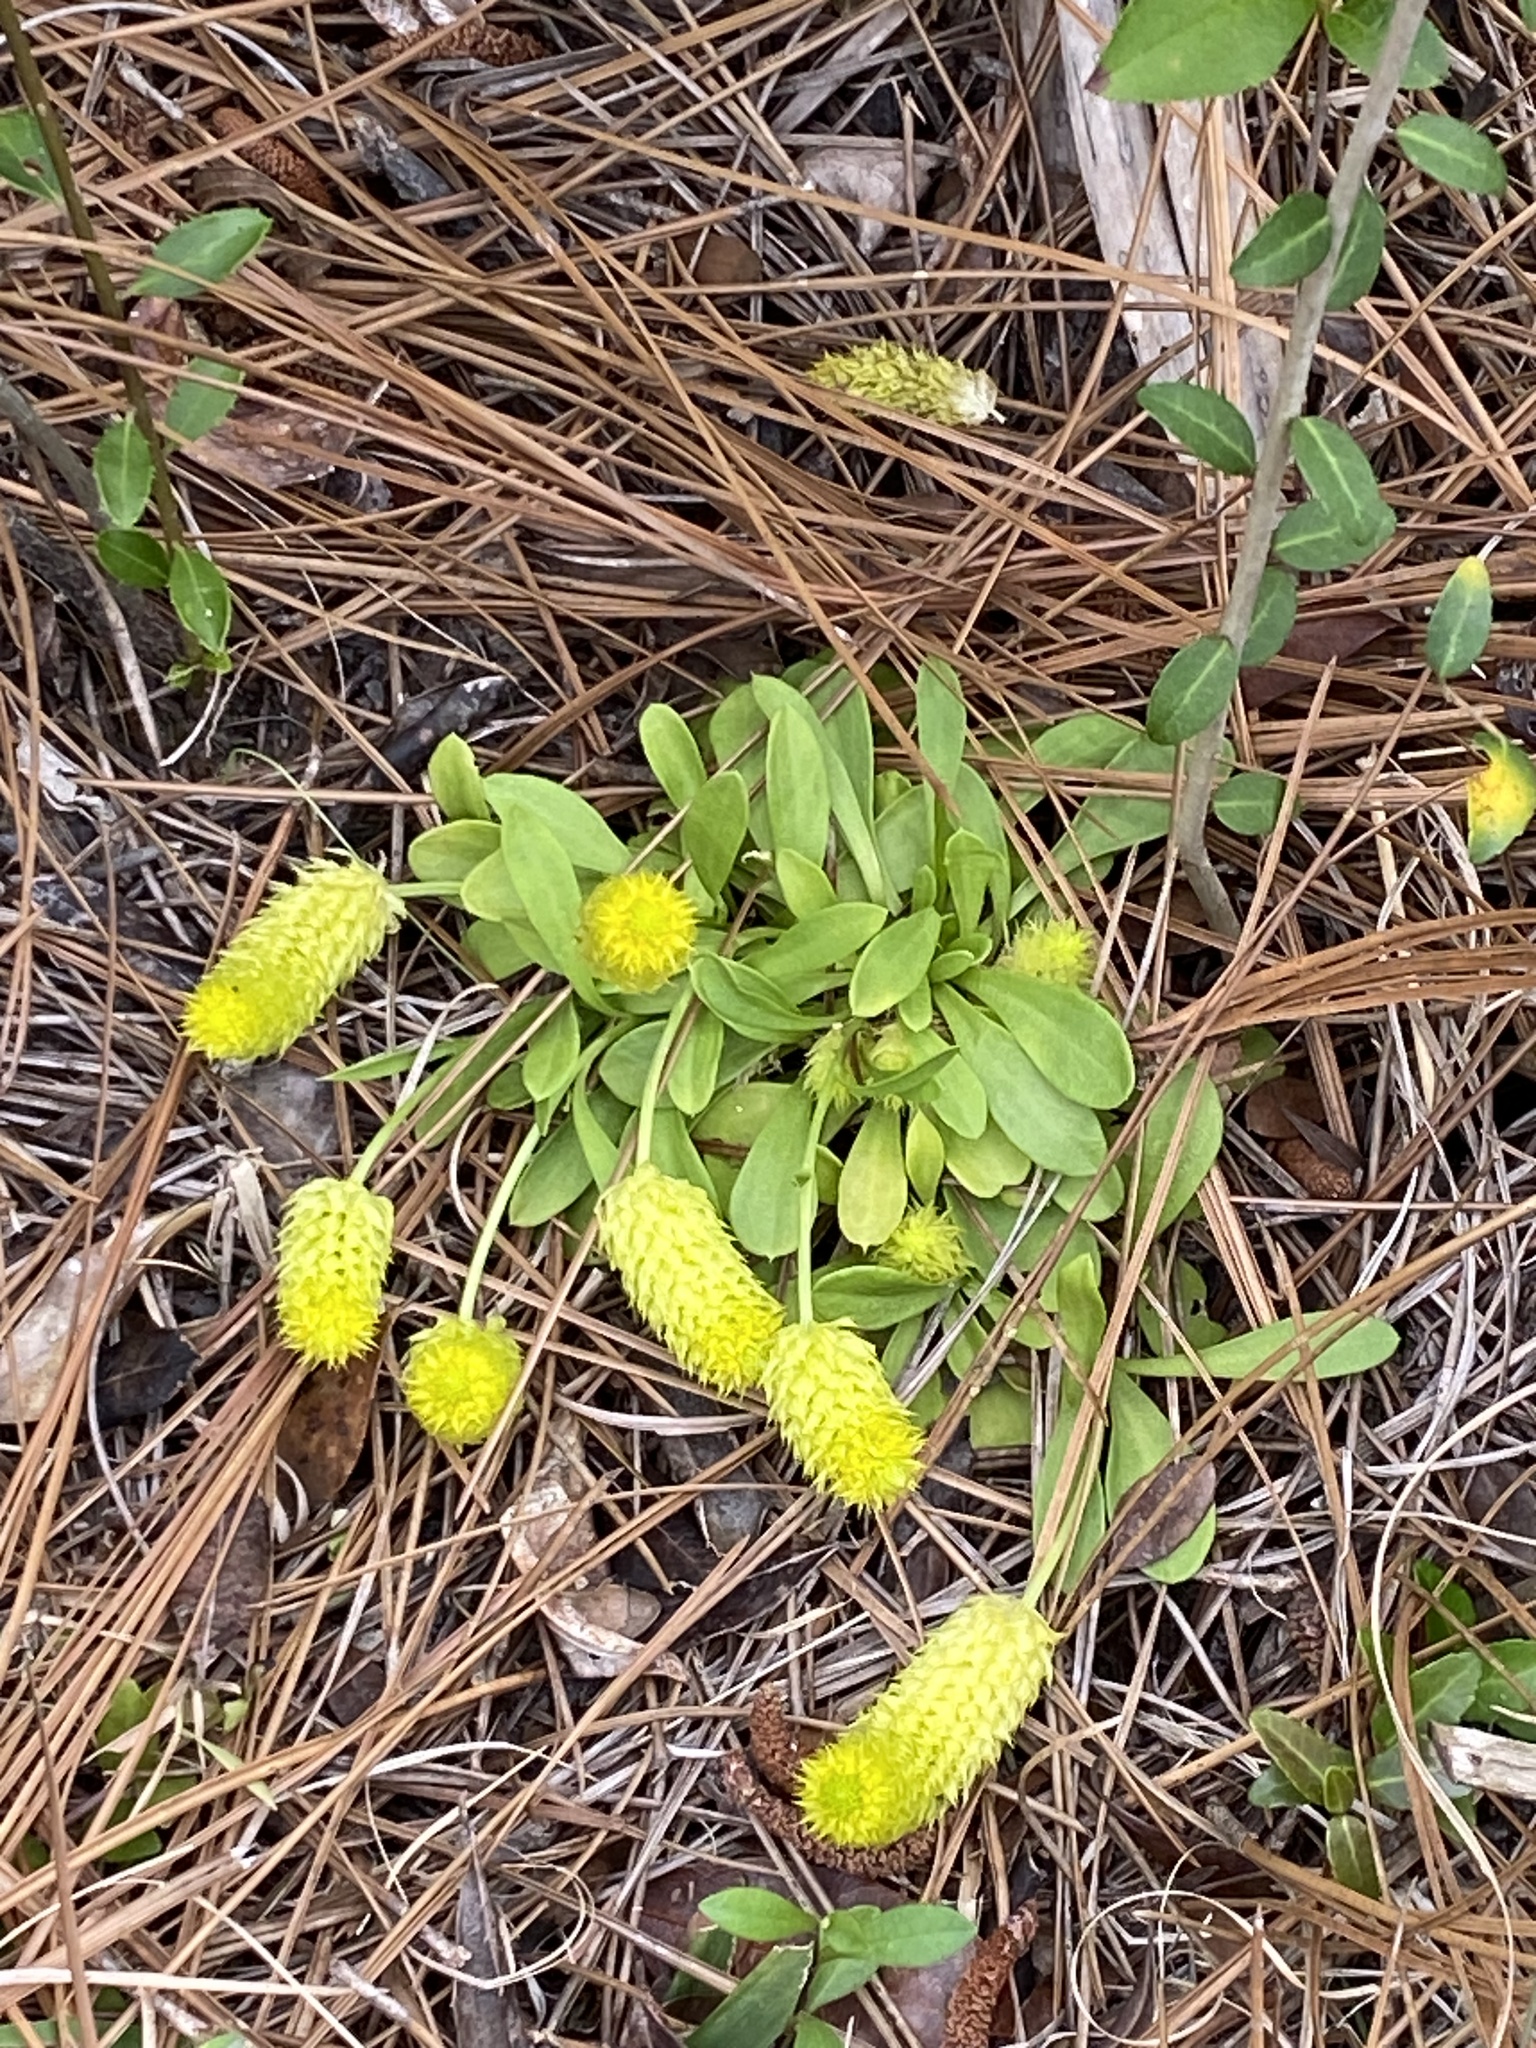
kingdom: Plantae
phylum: Tracheophyta
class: Magnoliopsida
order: Fabales
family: Polygalaceae
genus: Polygala
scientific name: Polygala nana
